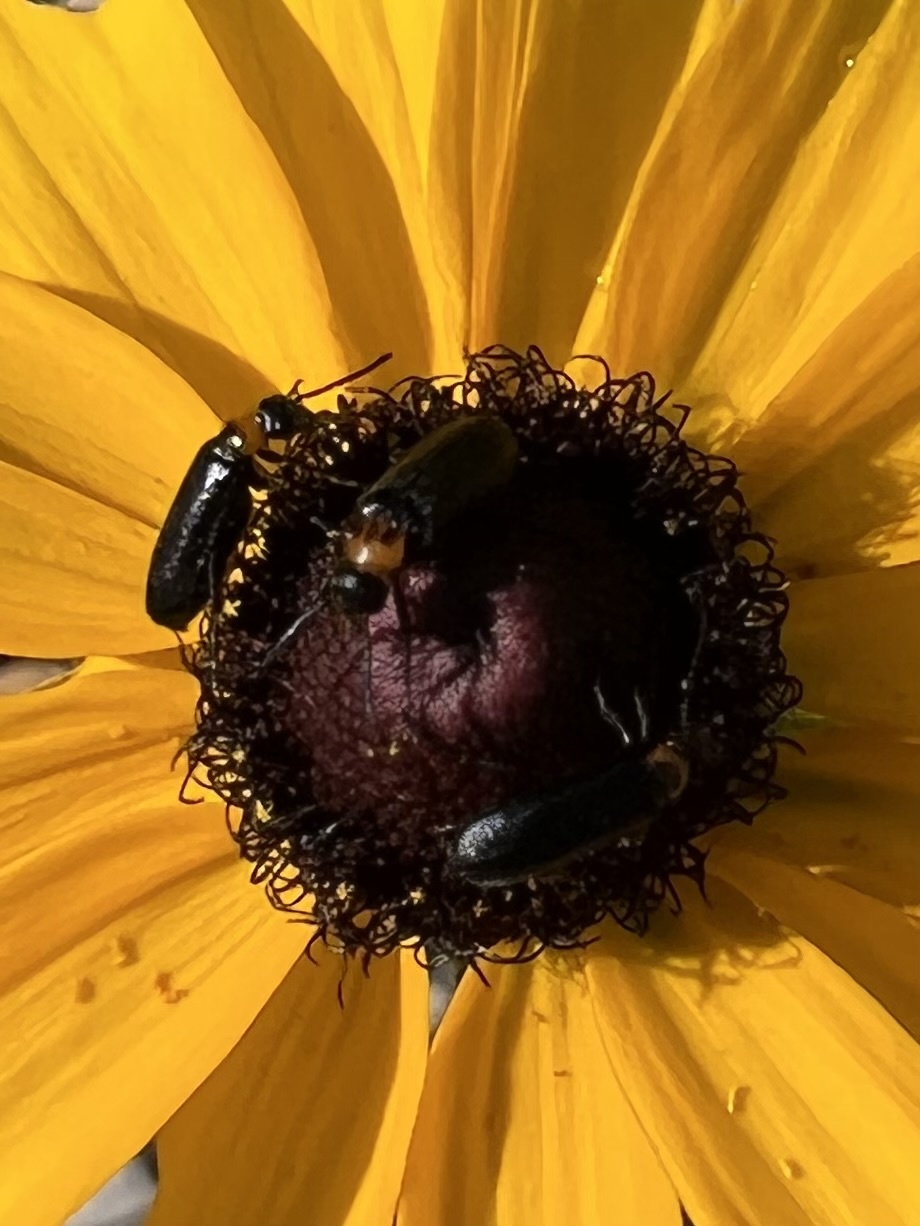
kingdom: Animalia
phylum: Arthropoda
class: Insecta
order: Coleoptera
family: Meloidae
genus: Nemognatha
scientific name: Nemognatha nemorensis
